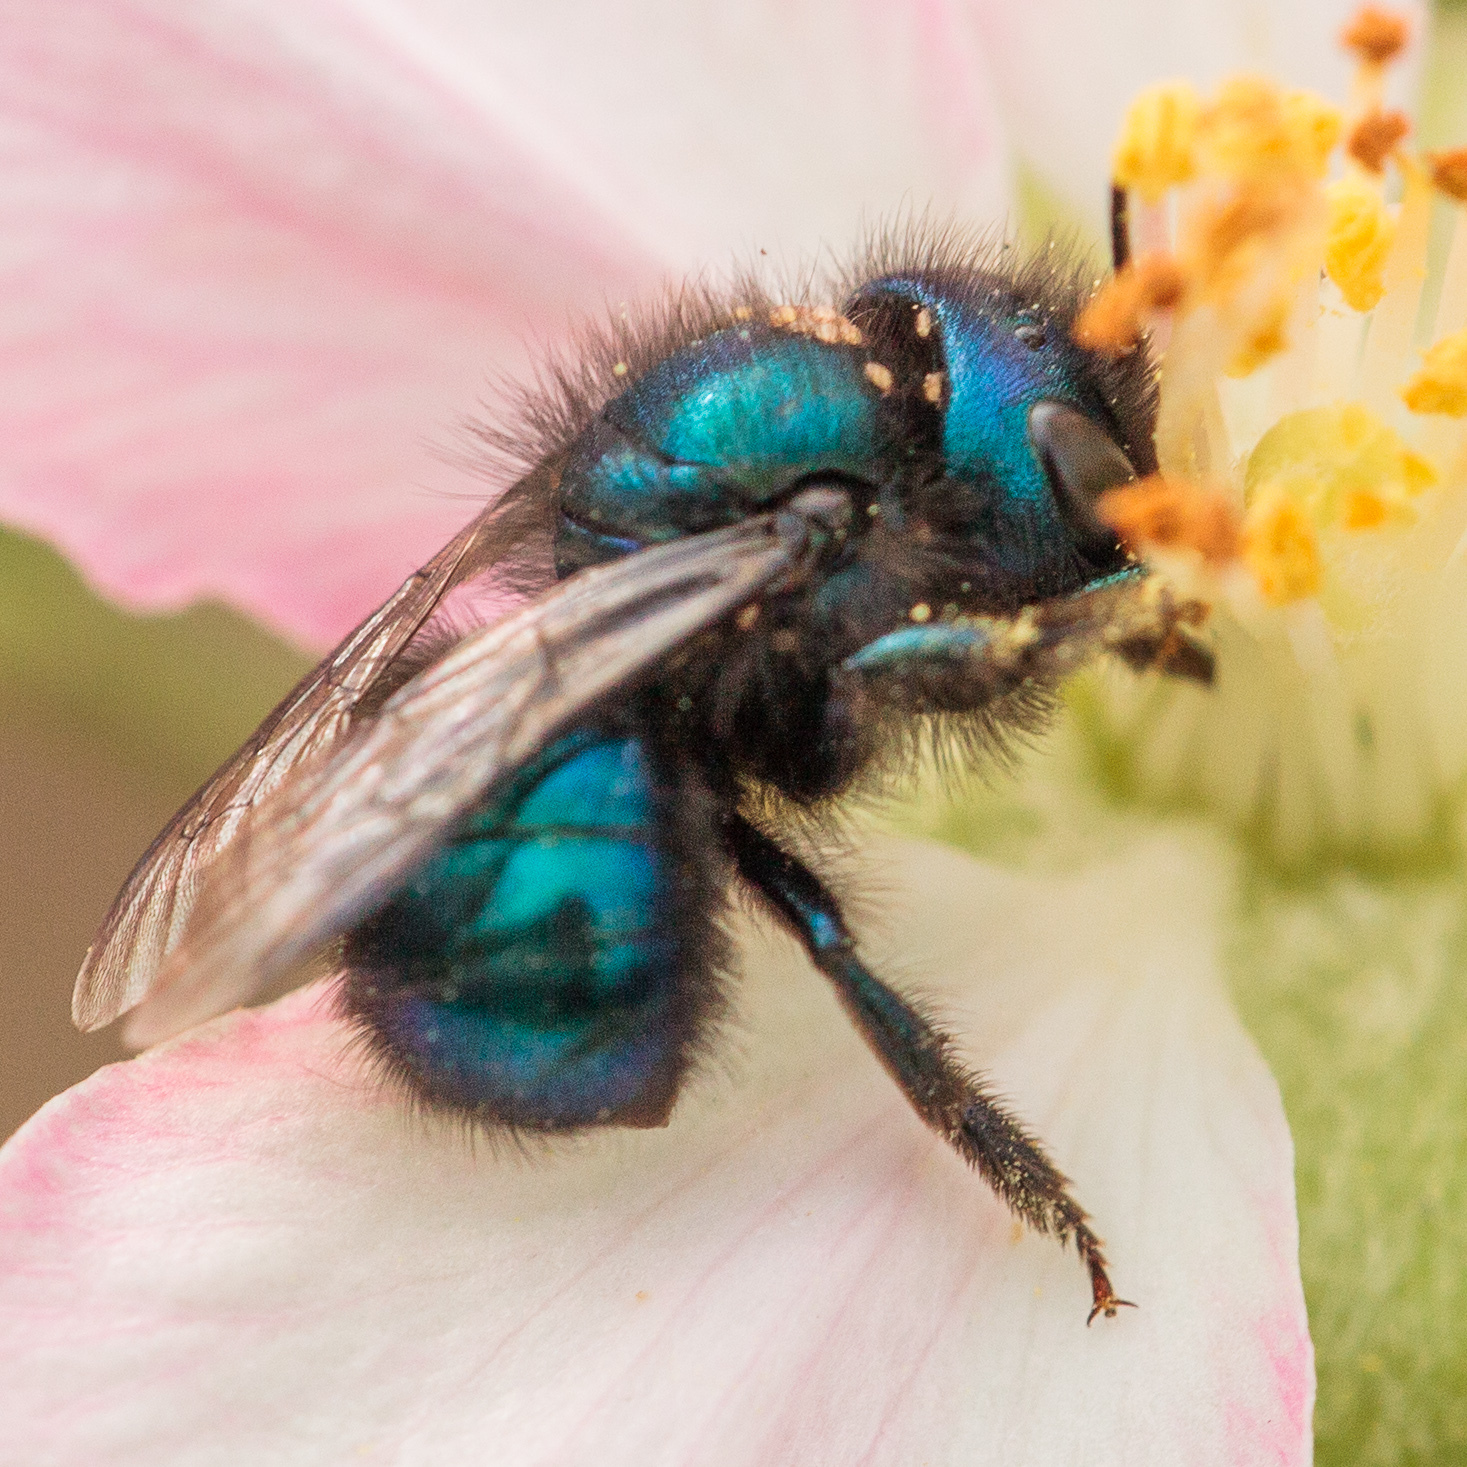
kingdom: Animalia
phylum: Arthropoda
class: Insecta
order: Hymenoptera
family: Megachilidae
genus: Osmia
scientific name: Osmia ribifloris
